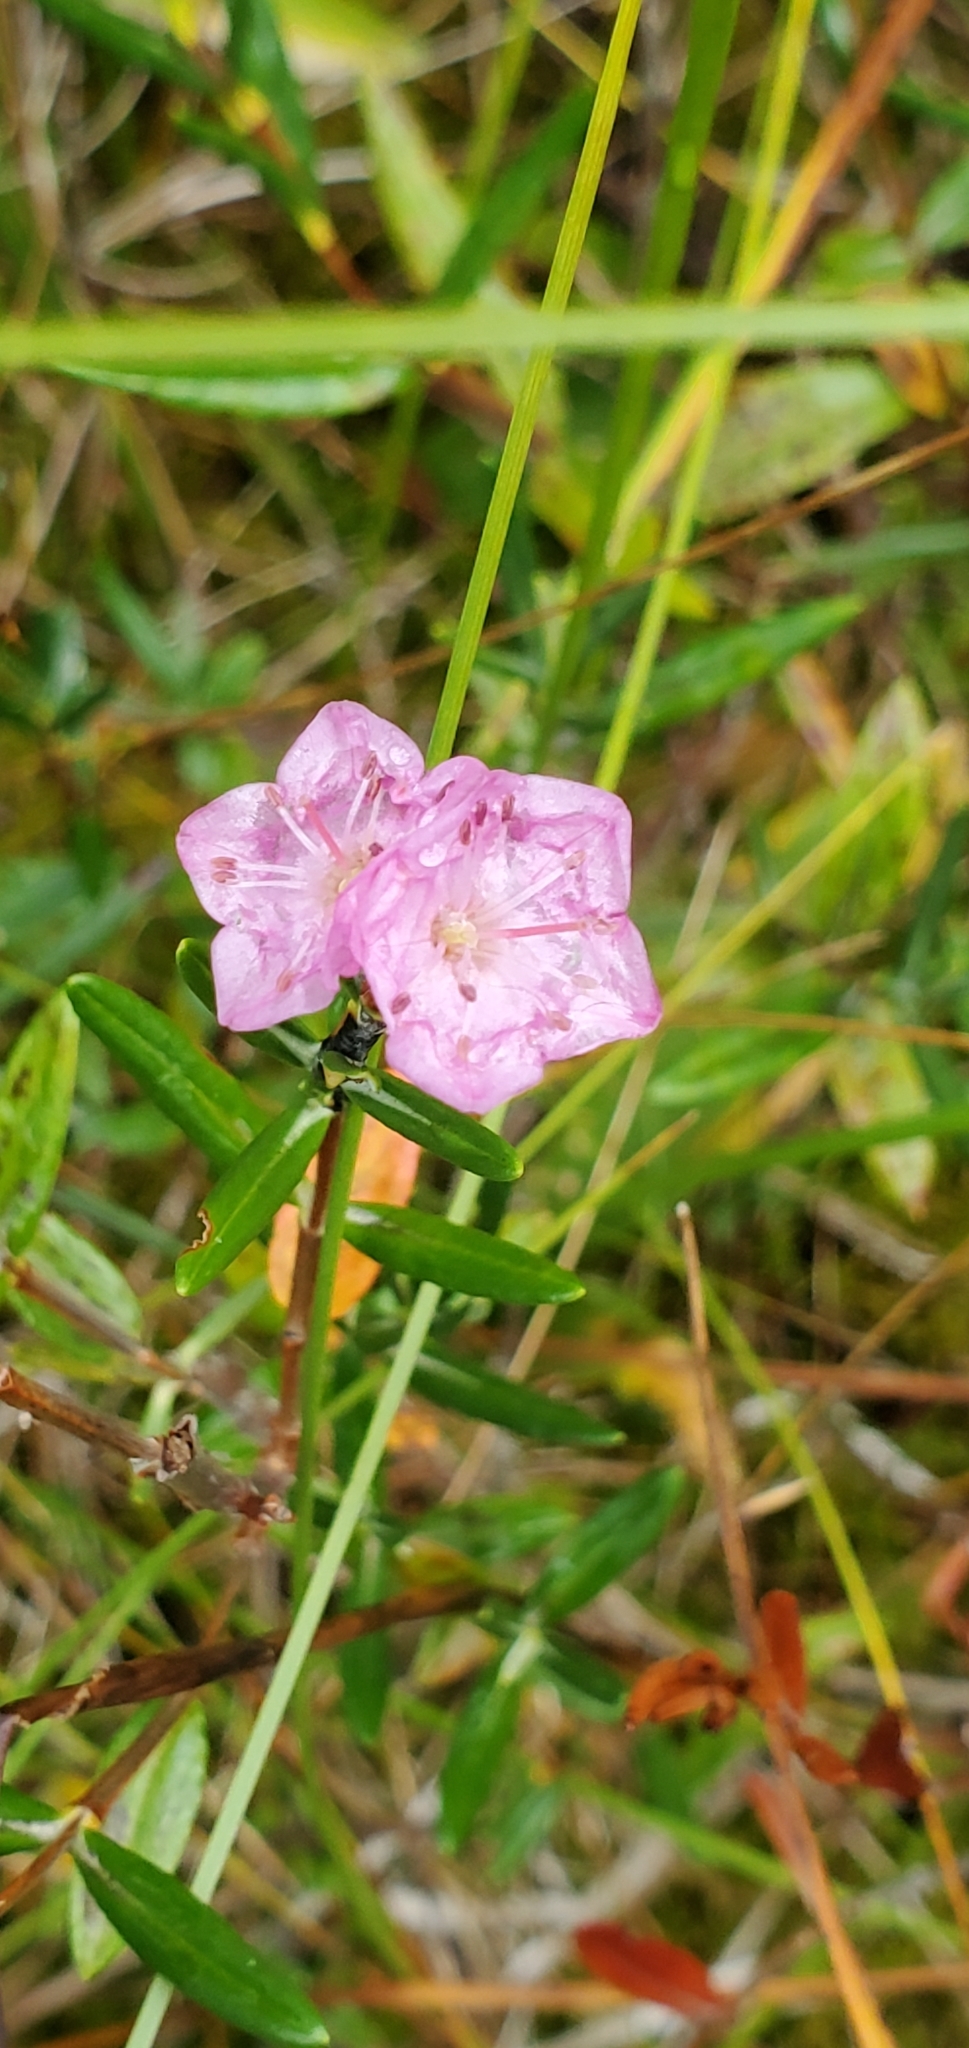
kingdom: Plantae
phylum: Tracheophyta
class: Magnoliopsida
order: Ericales
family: Ericaceae
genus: Kalmia
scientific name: Kalmia polifolia
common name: Bog-laurel
